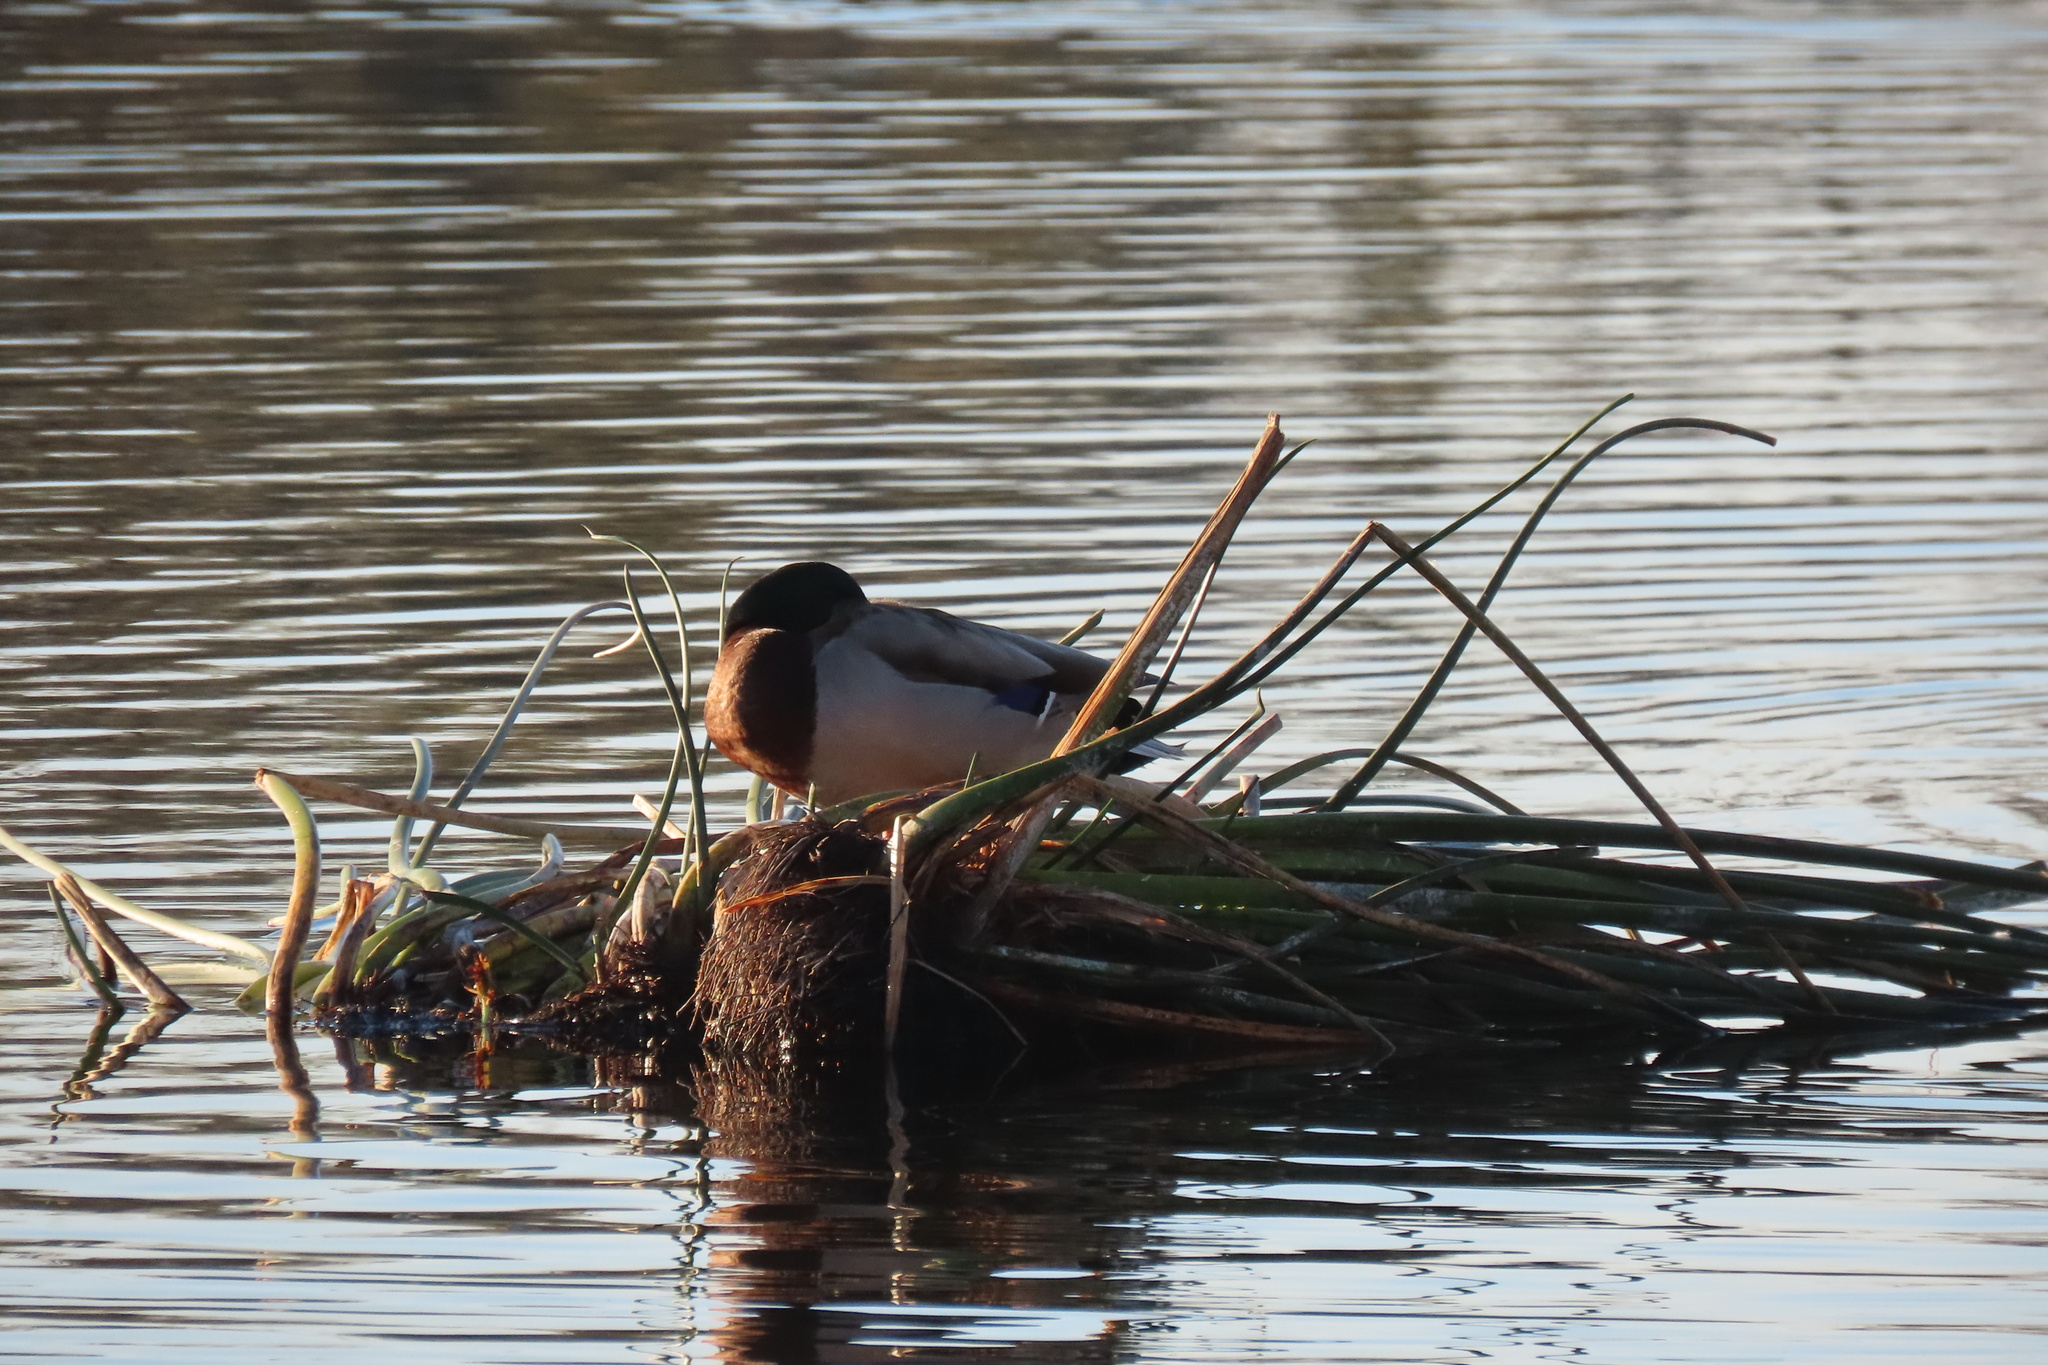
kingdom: Animalia
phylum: Chordata
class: Aves
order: Anseriformes
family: Anatidae
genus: Anas
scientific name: Anas platyrhynchos
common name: Mallard
